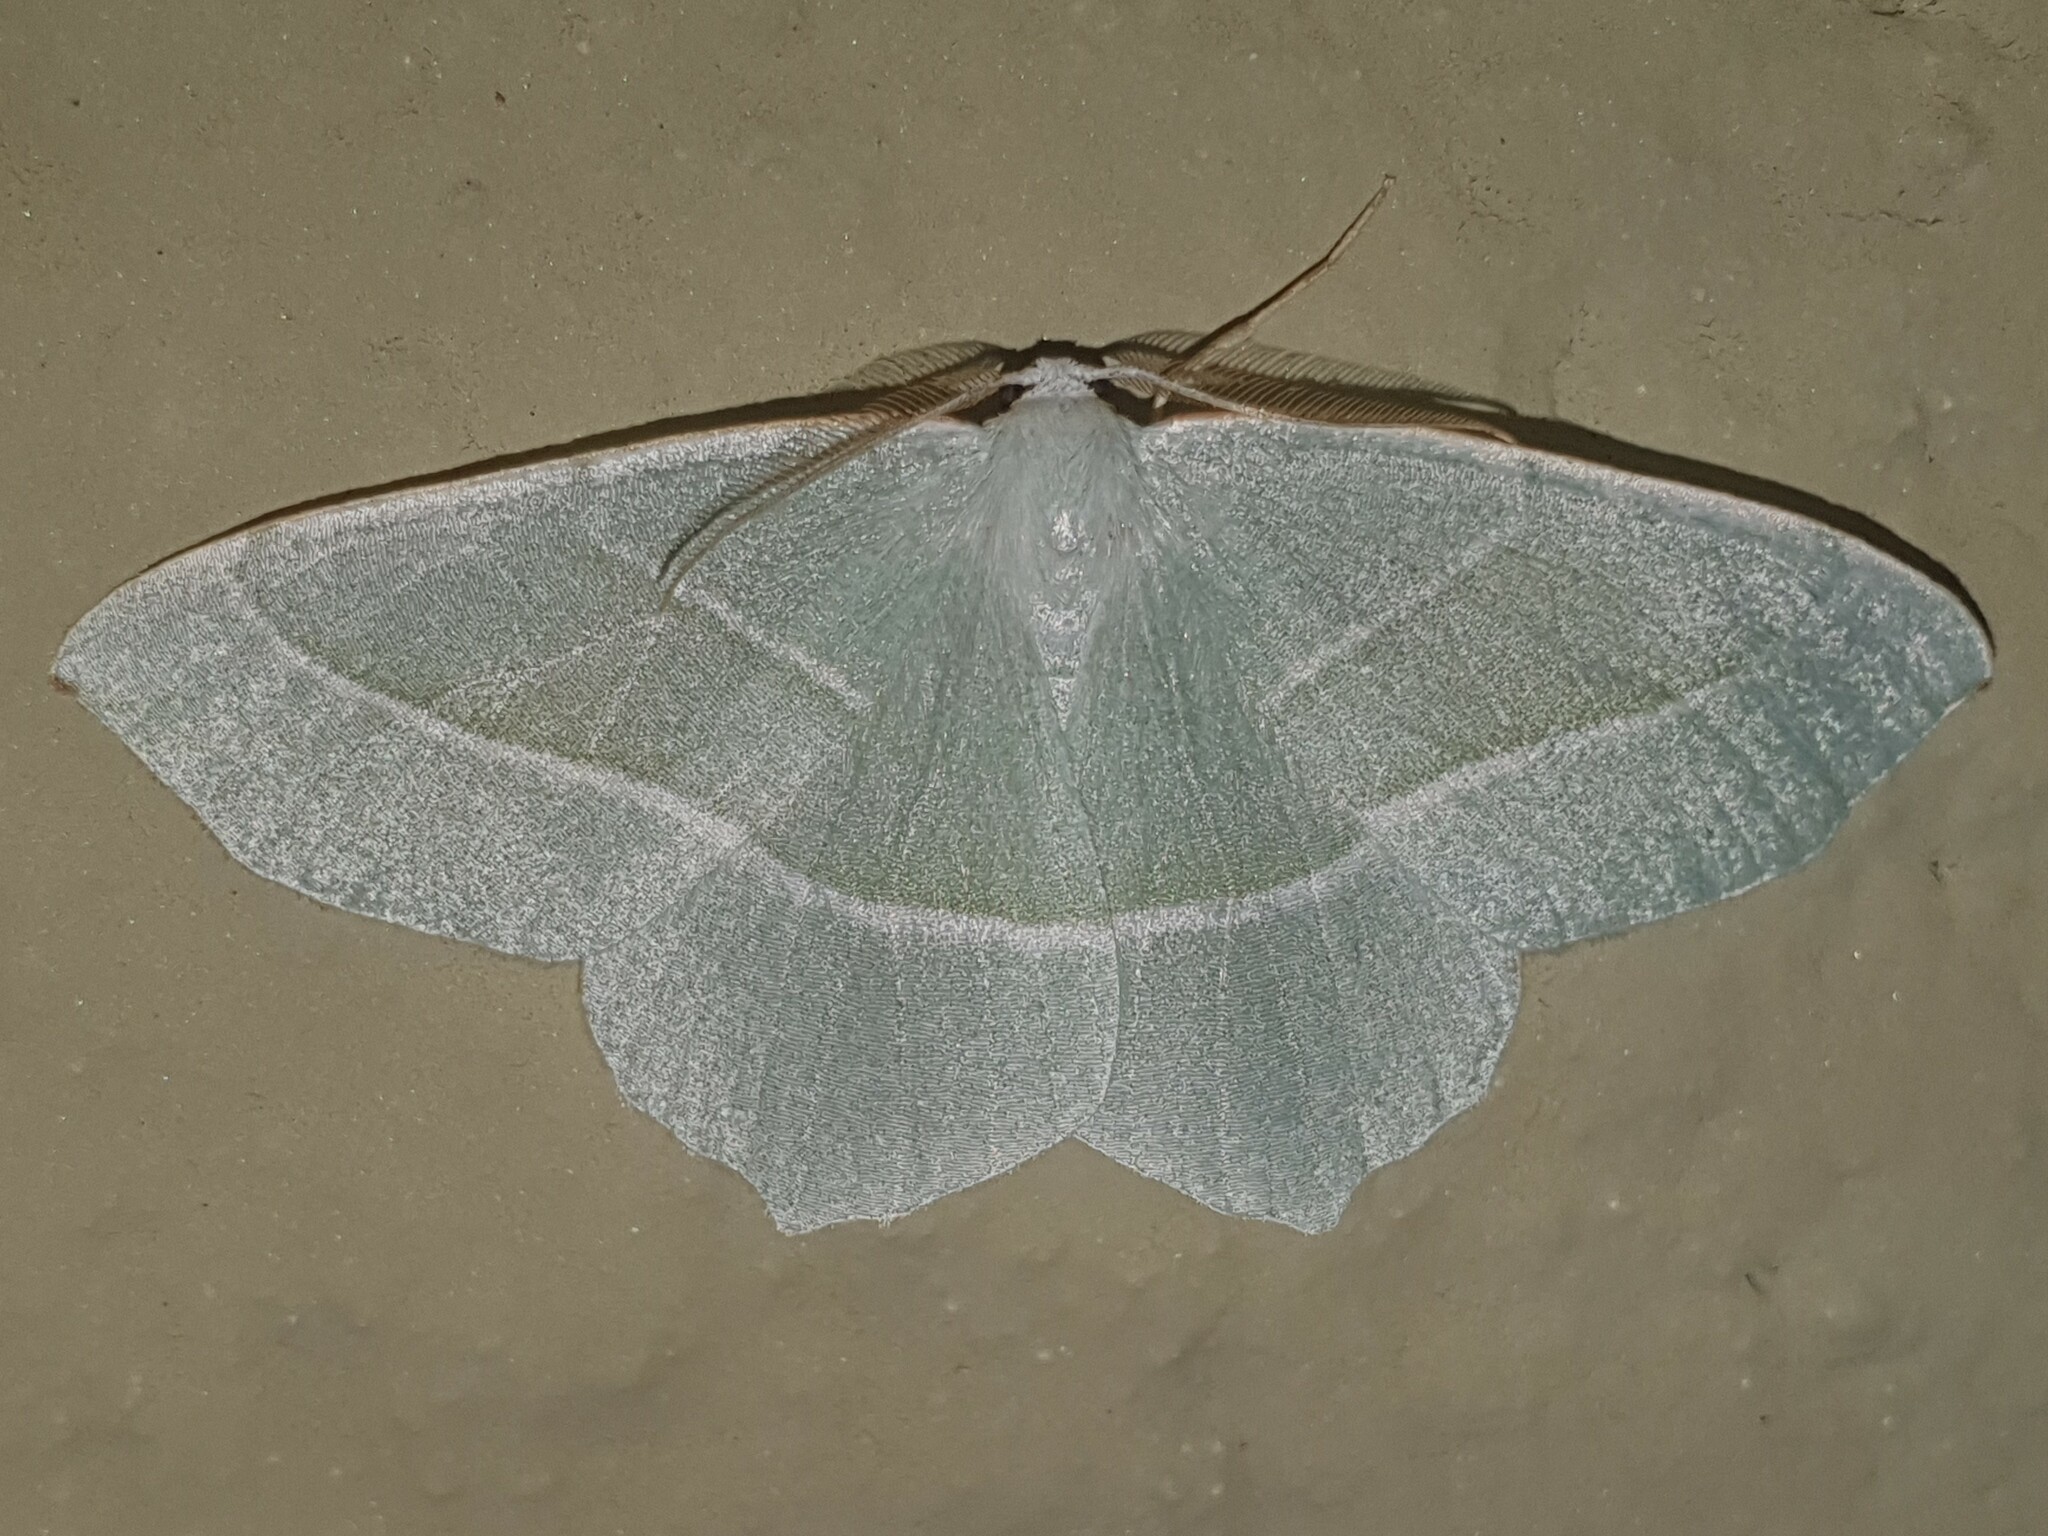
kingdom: Animalia
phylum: Arthropoda
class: Insecta
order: Lepidoptera
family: Geometridae
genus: Campaea
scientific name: Campaea margaritaria
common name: Light emerald
